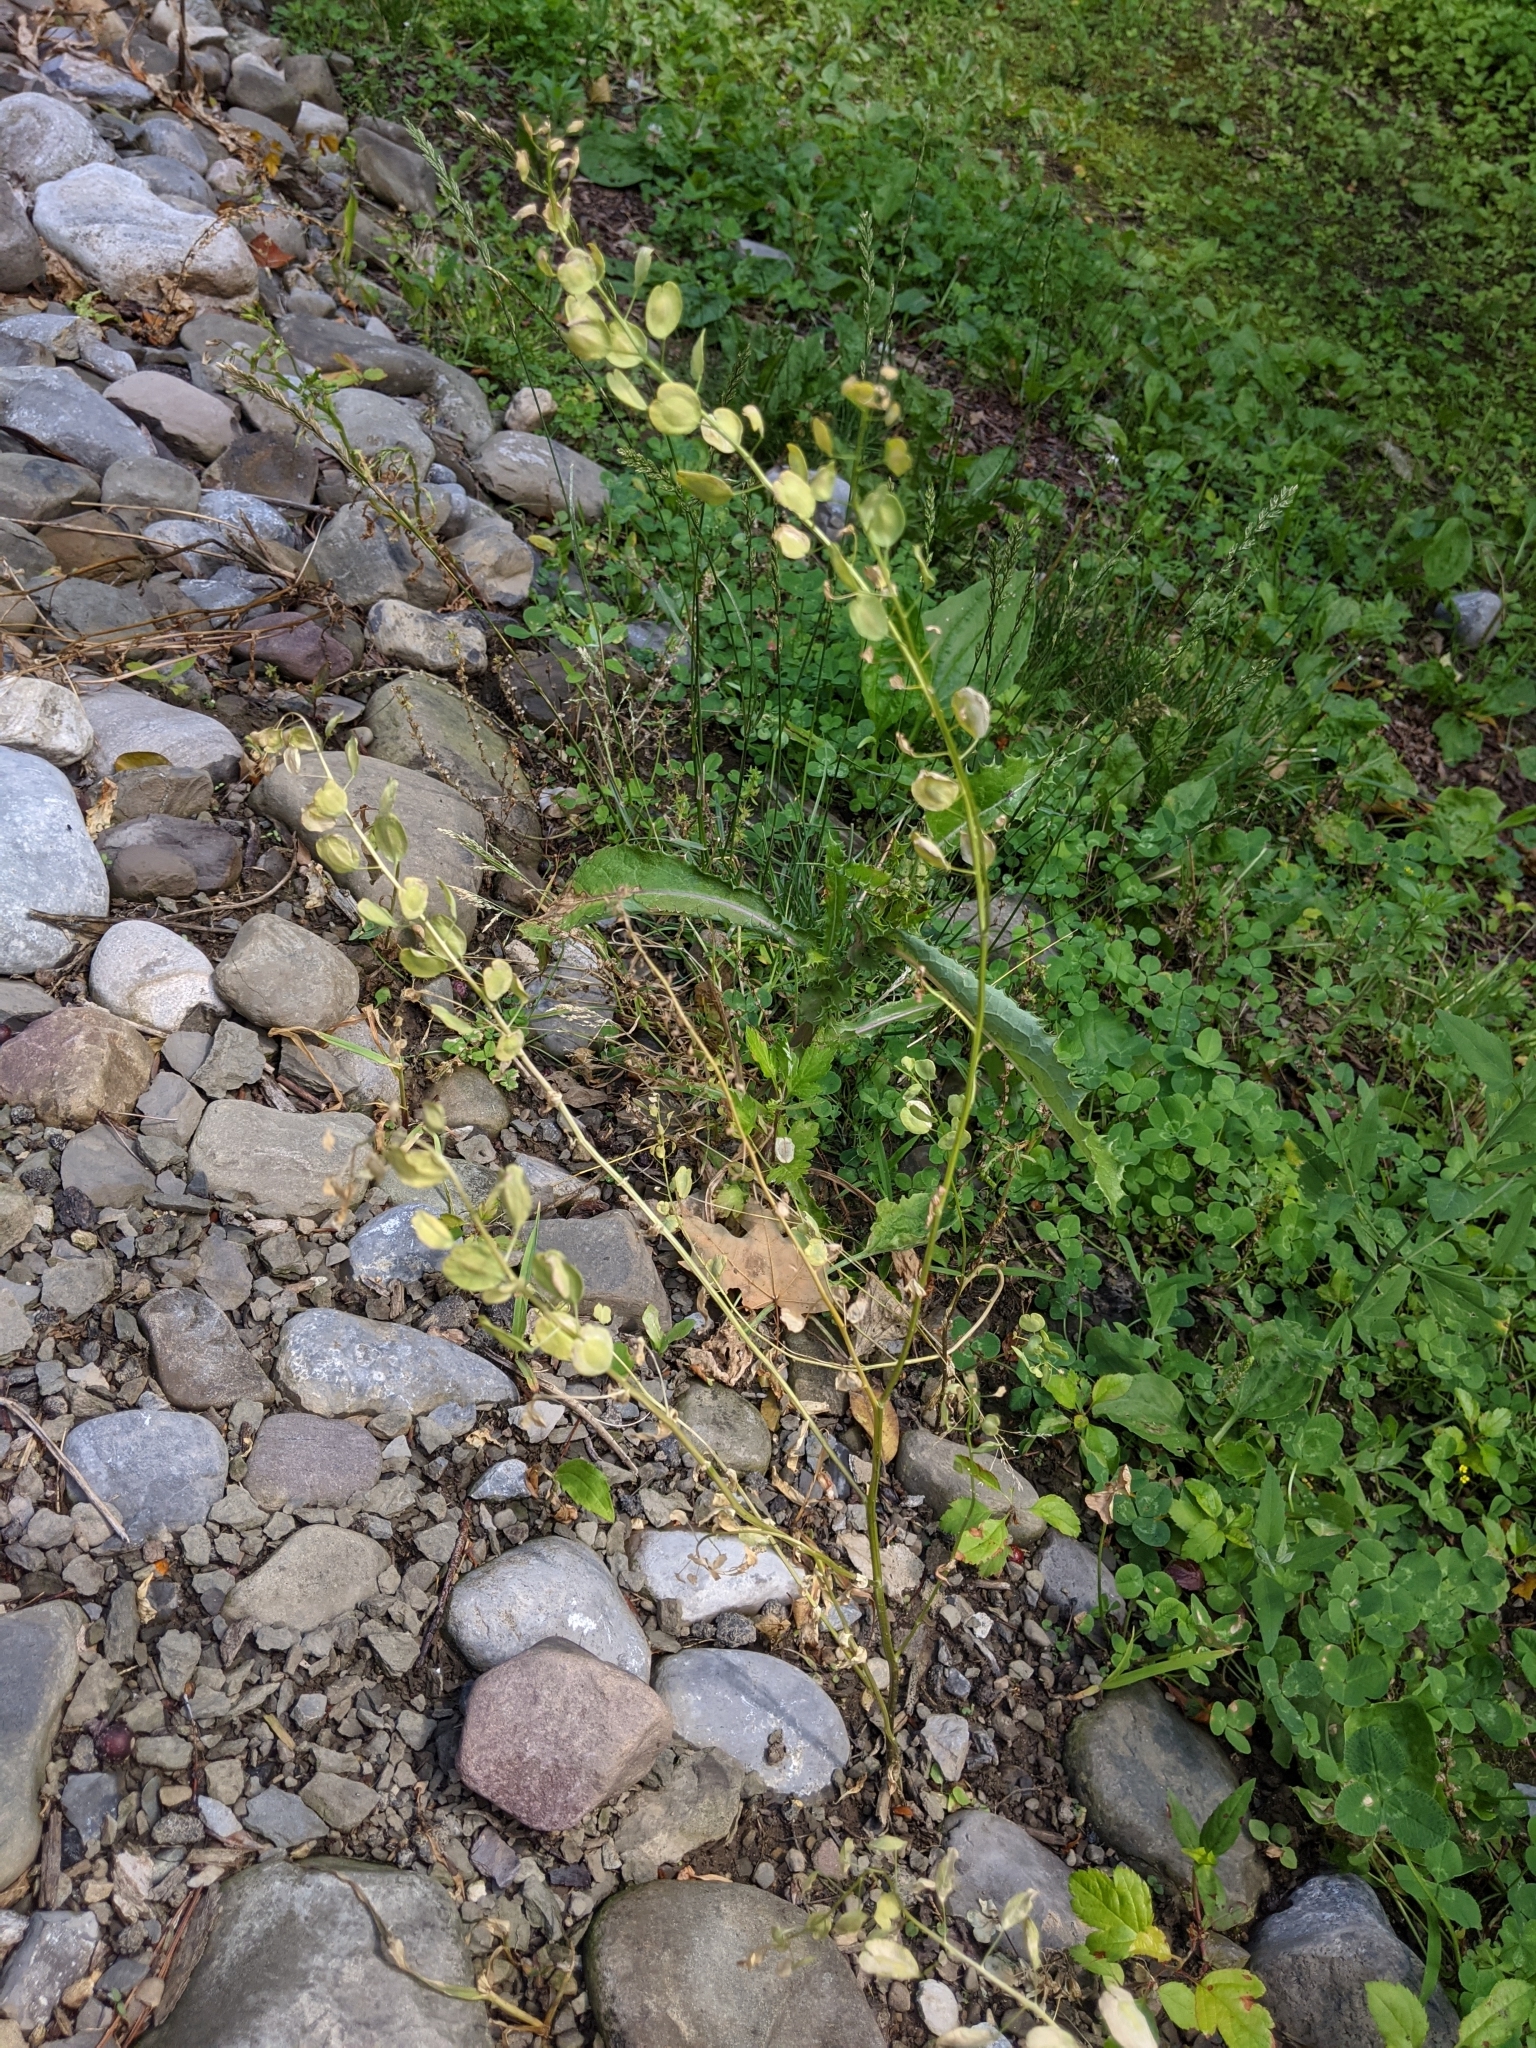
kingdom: Plantae
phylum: Tracheophyta
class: Magnoliopsida
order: Brassicales
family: Brassicaceae
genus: Thlaspi
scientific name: Thlaspi arvense
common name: Field pennycress
